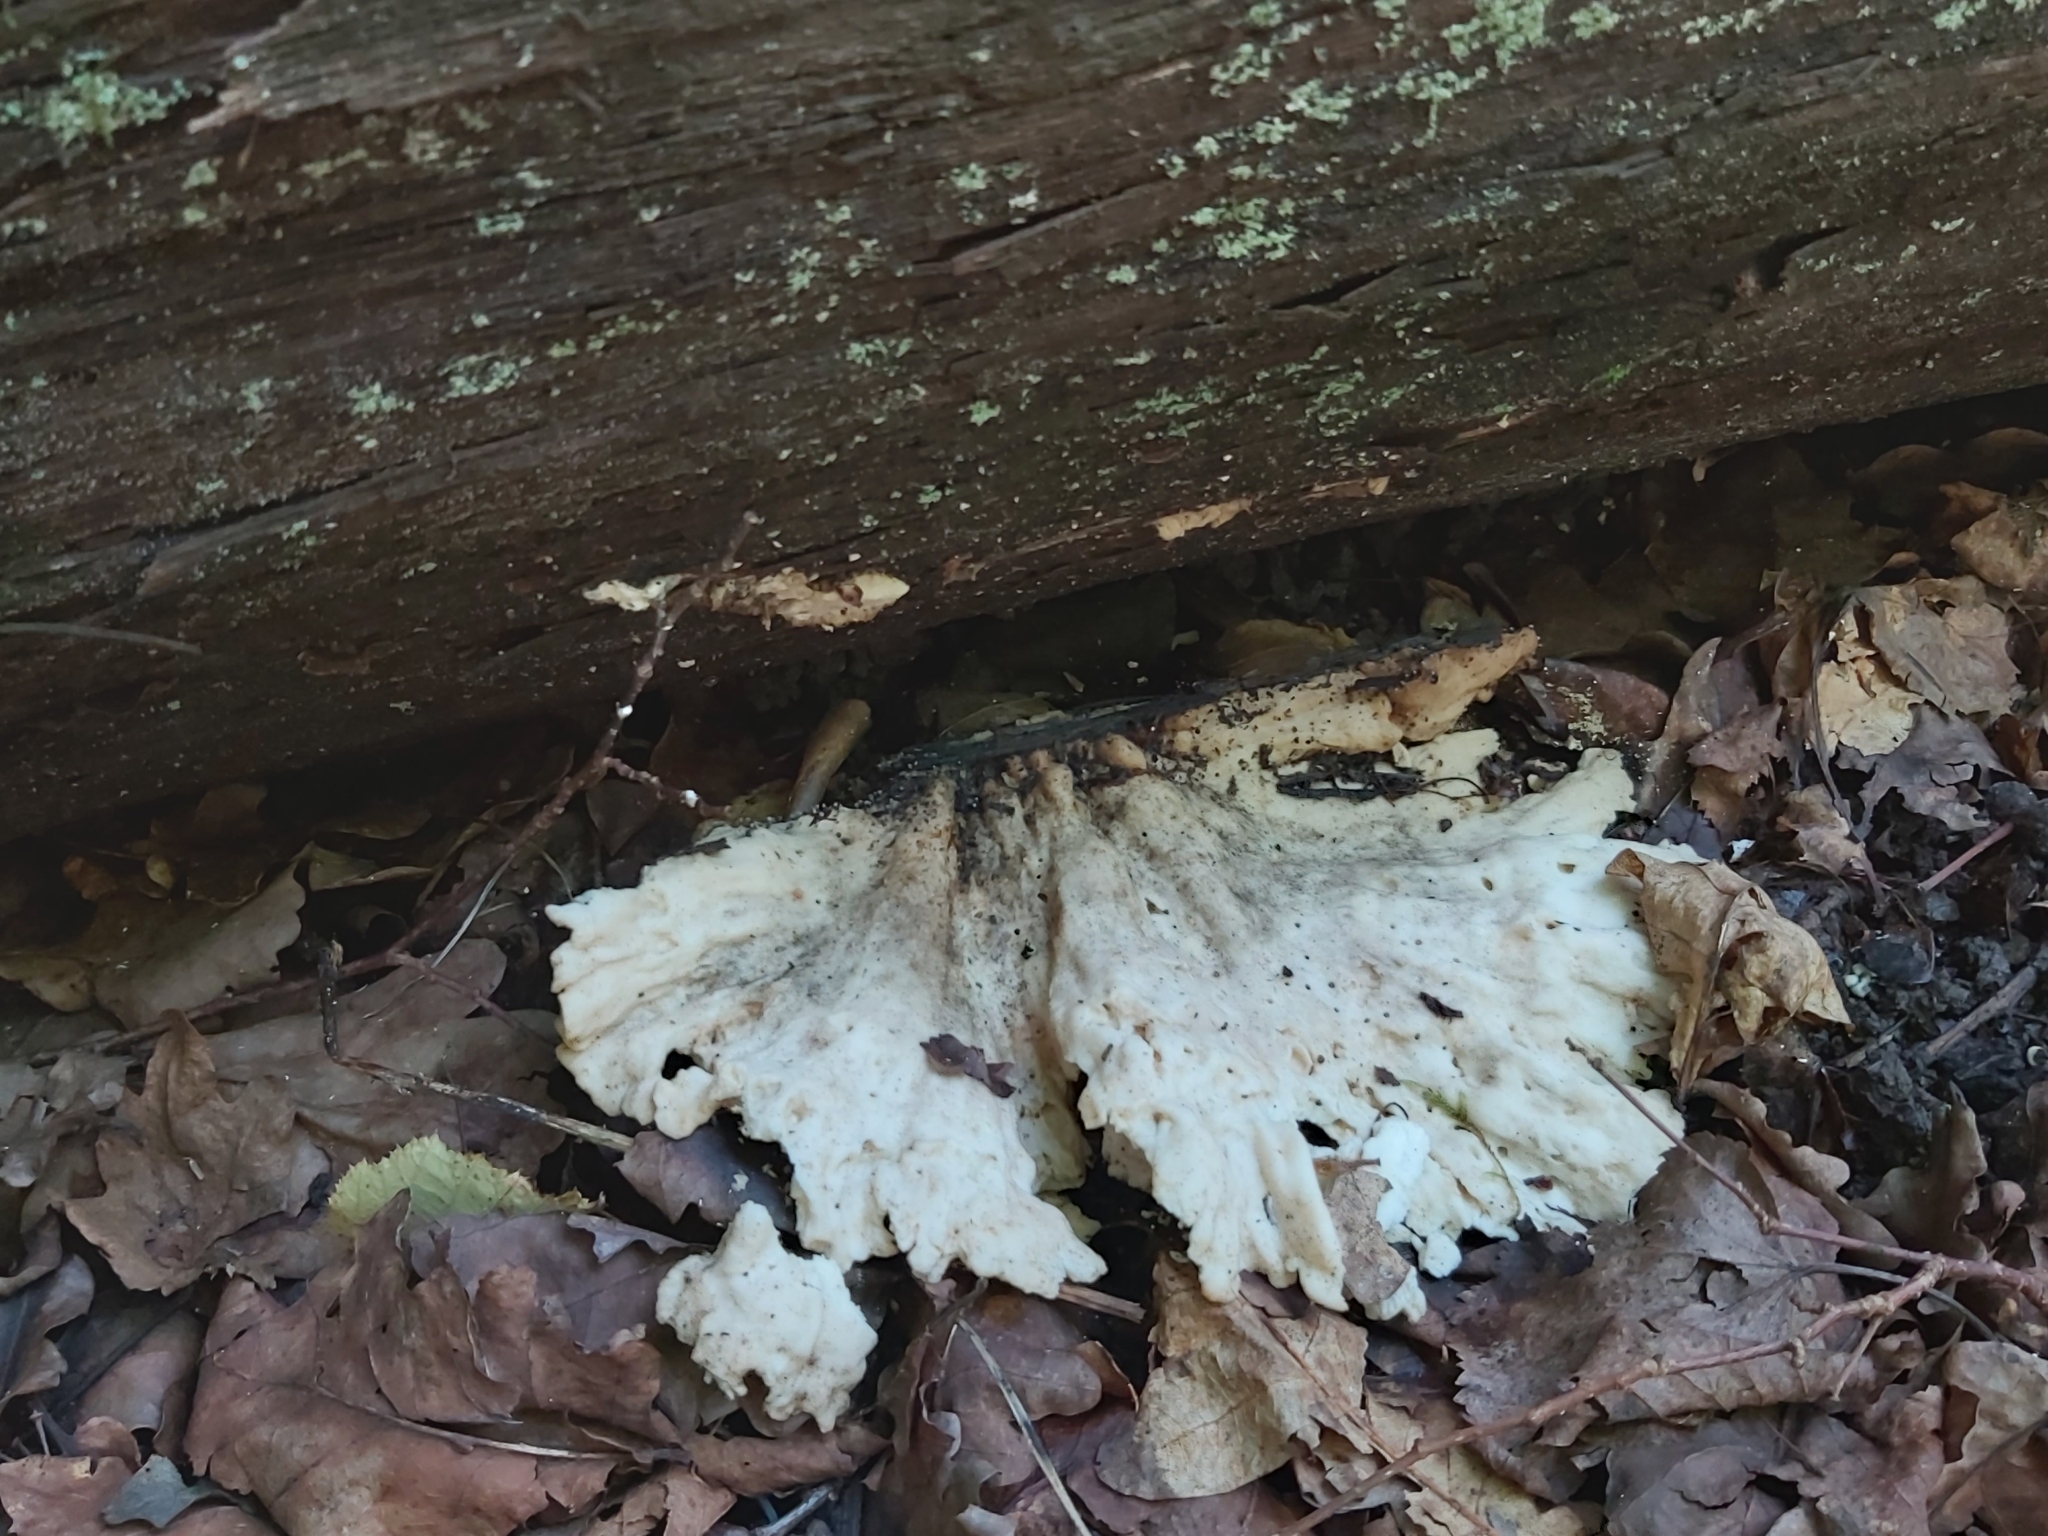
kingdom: Fungi
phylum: Basidiomycota
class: Agaricomycetes
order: Polyporales
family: Laetiporaceae
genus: Laetiporus
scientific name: Laetiporus sulphureus
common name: Chicken of the woods
